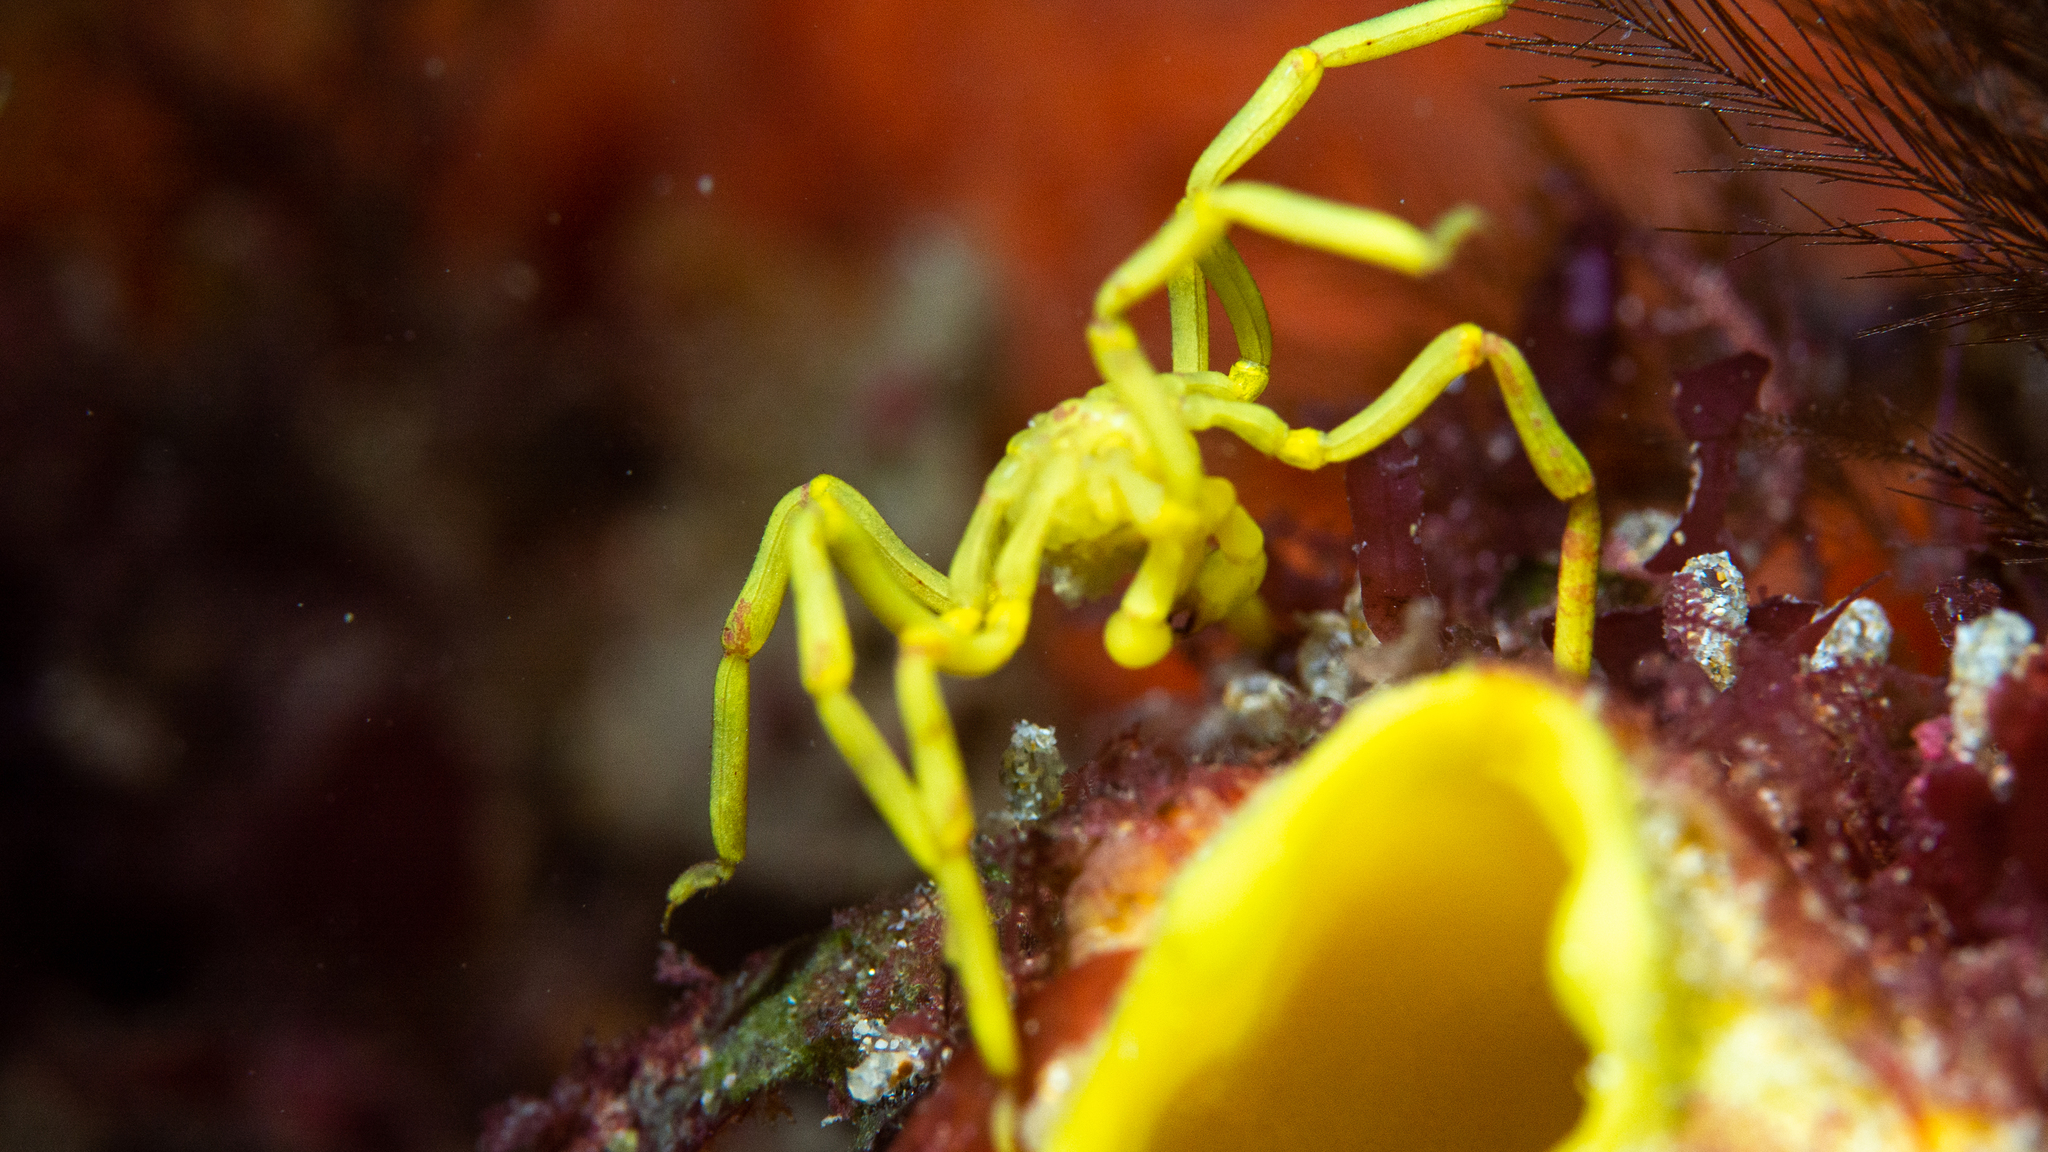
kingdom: Animalia
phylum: Arthropoda
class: Pycnogonida
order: Pantopoda
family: Callipallenidae
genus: Pallenella
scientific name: Pallenella ambigua
